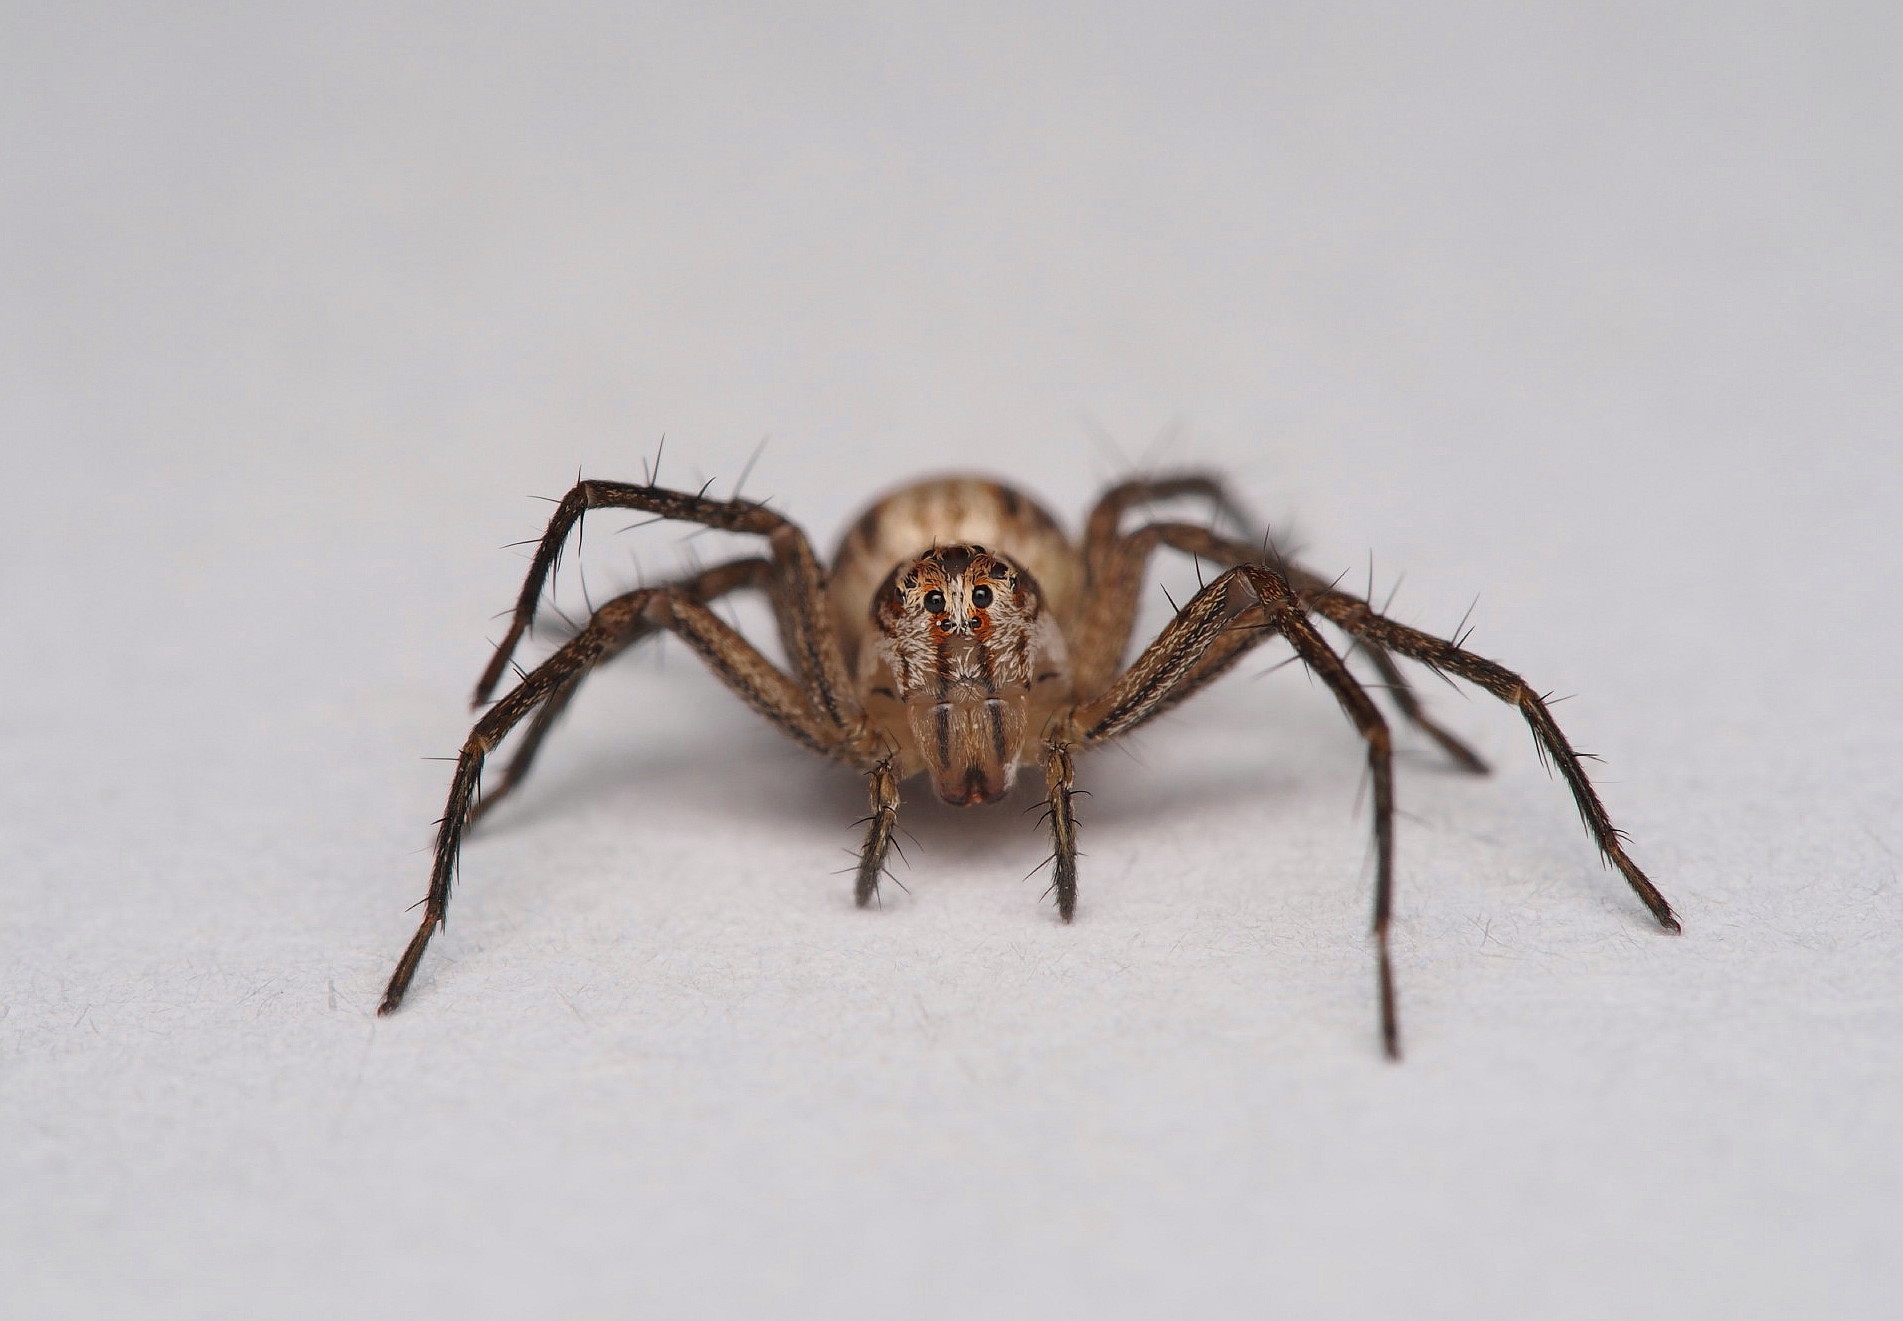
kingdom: Animalia
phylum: Arthropoda
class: Arachnida
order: Araneae
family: Oxyopidae
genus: Oxyopes
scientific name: Oxyopes gracilipes
